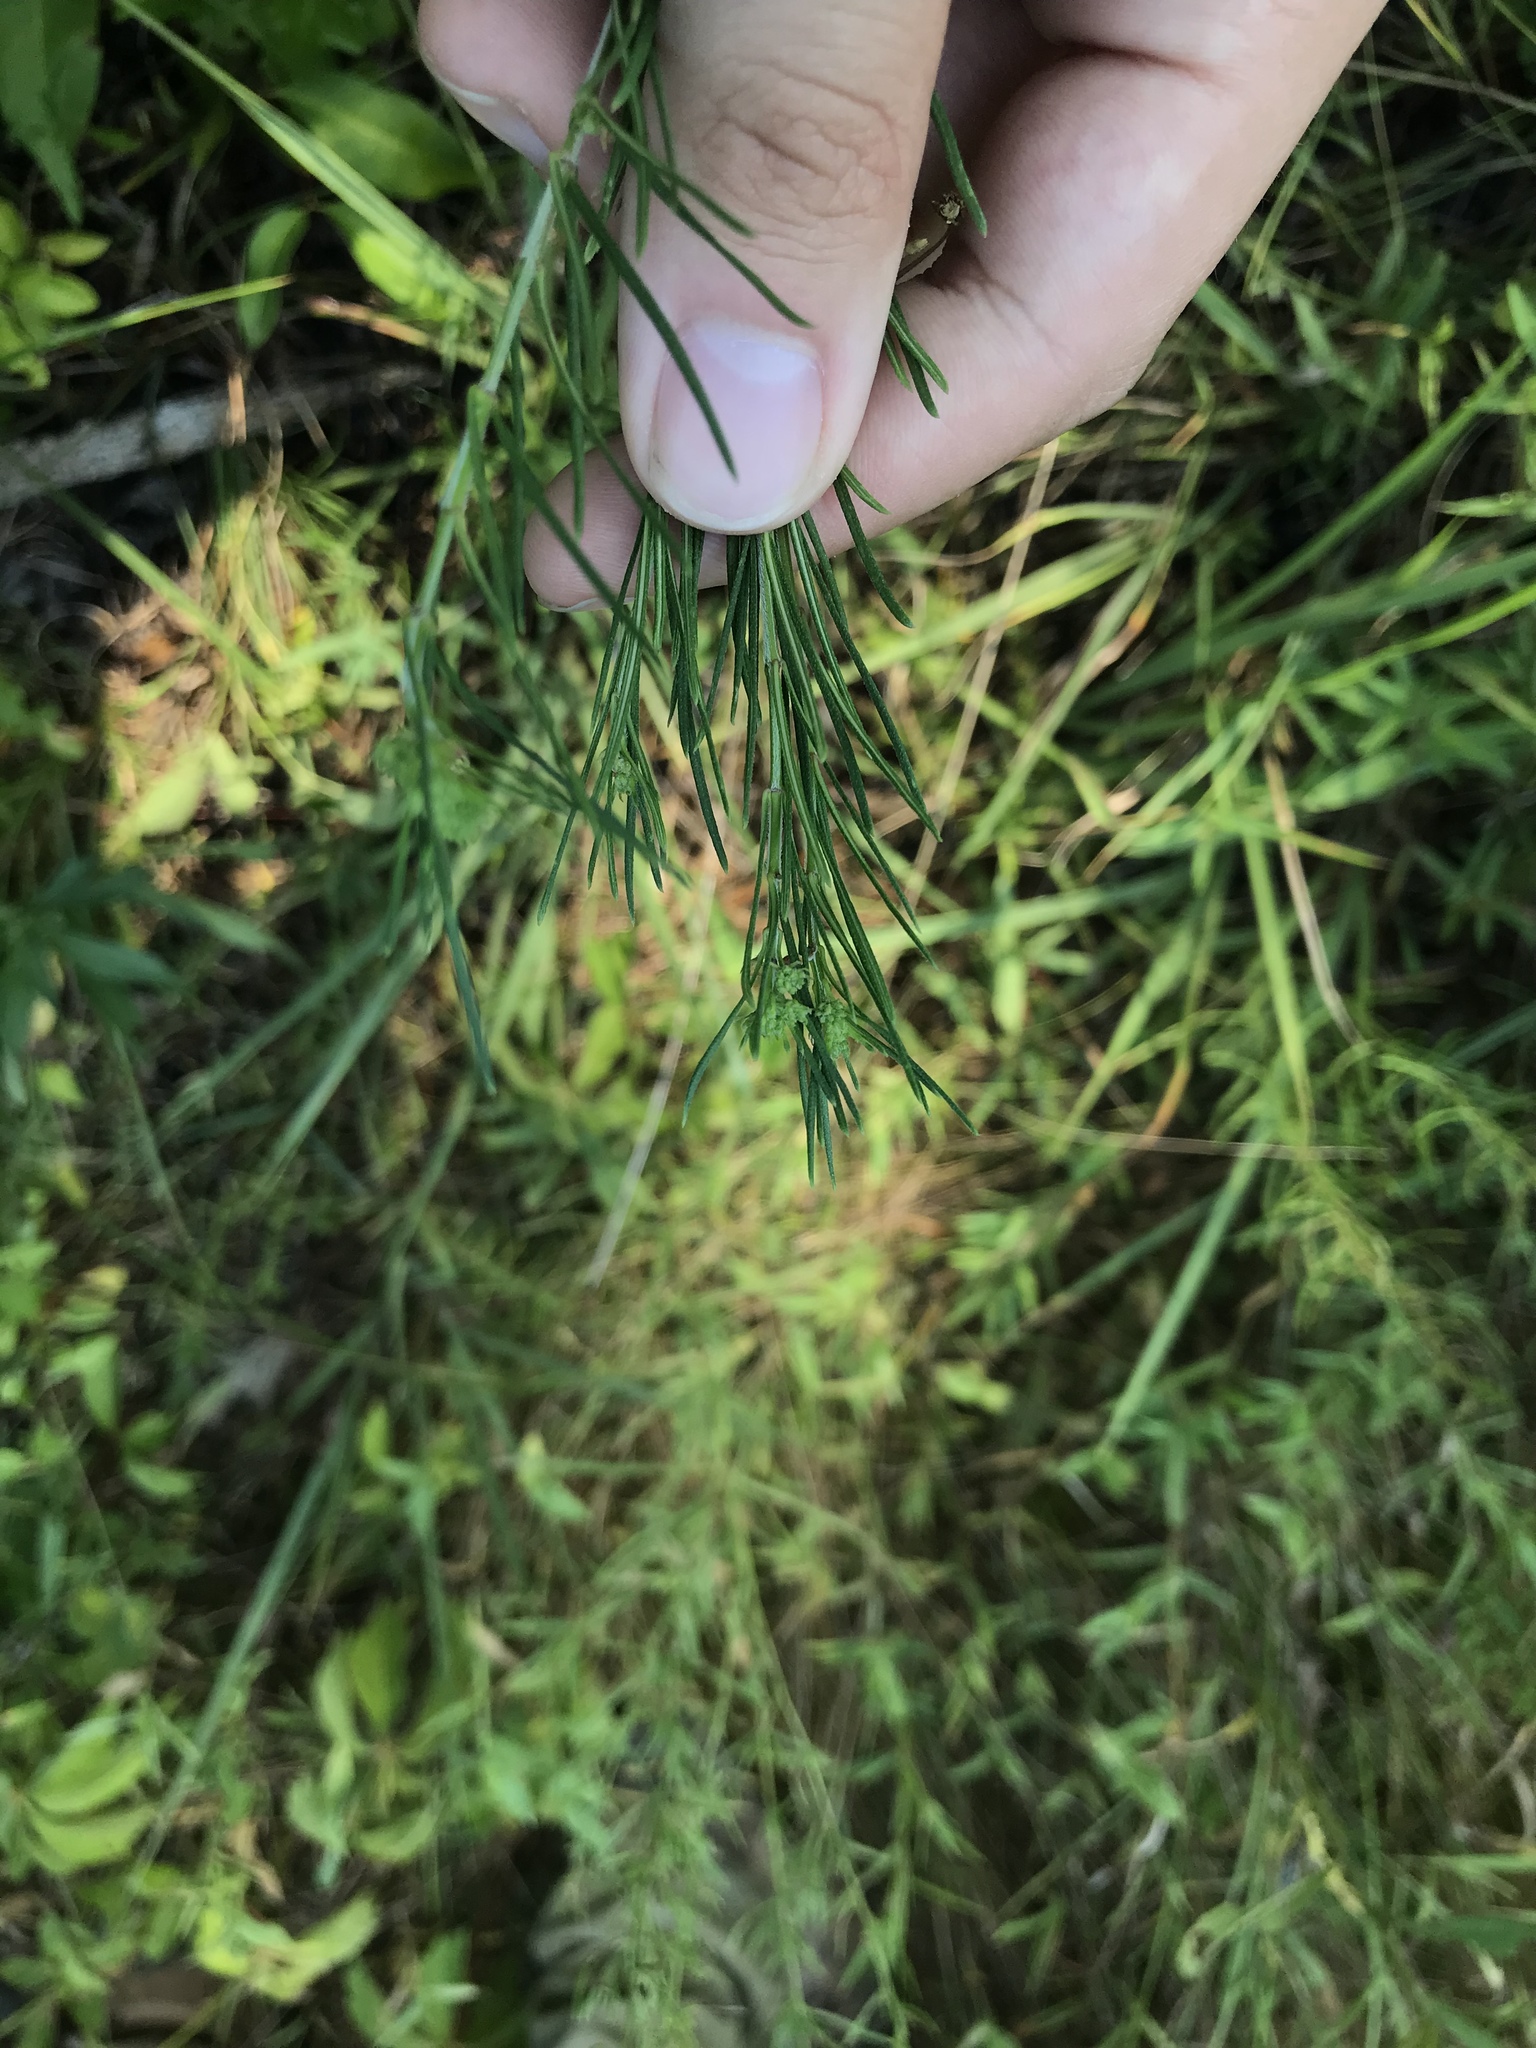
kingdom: Plantae
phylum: Tracheophyta
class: Magnoliopsida
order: Gentianales
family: Apocynaceae
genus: Asclepias
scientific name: Asclepias verticillata
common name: Eastern whorled milkweed
